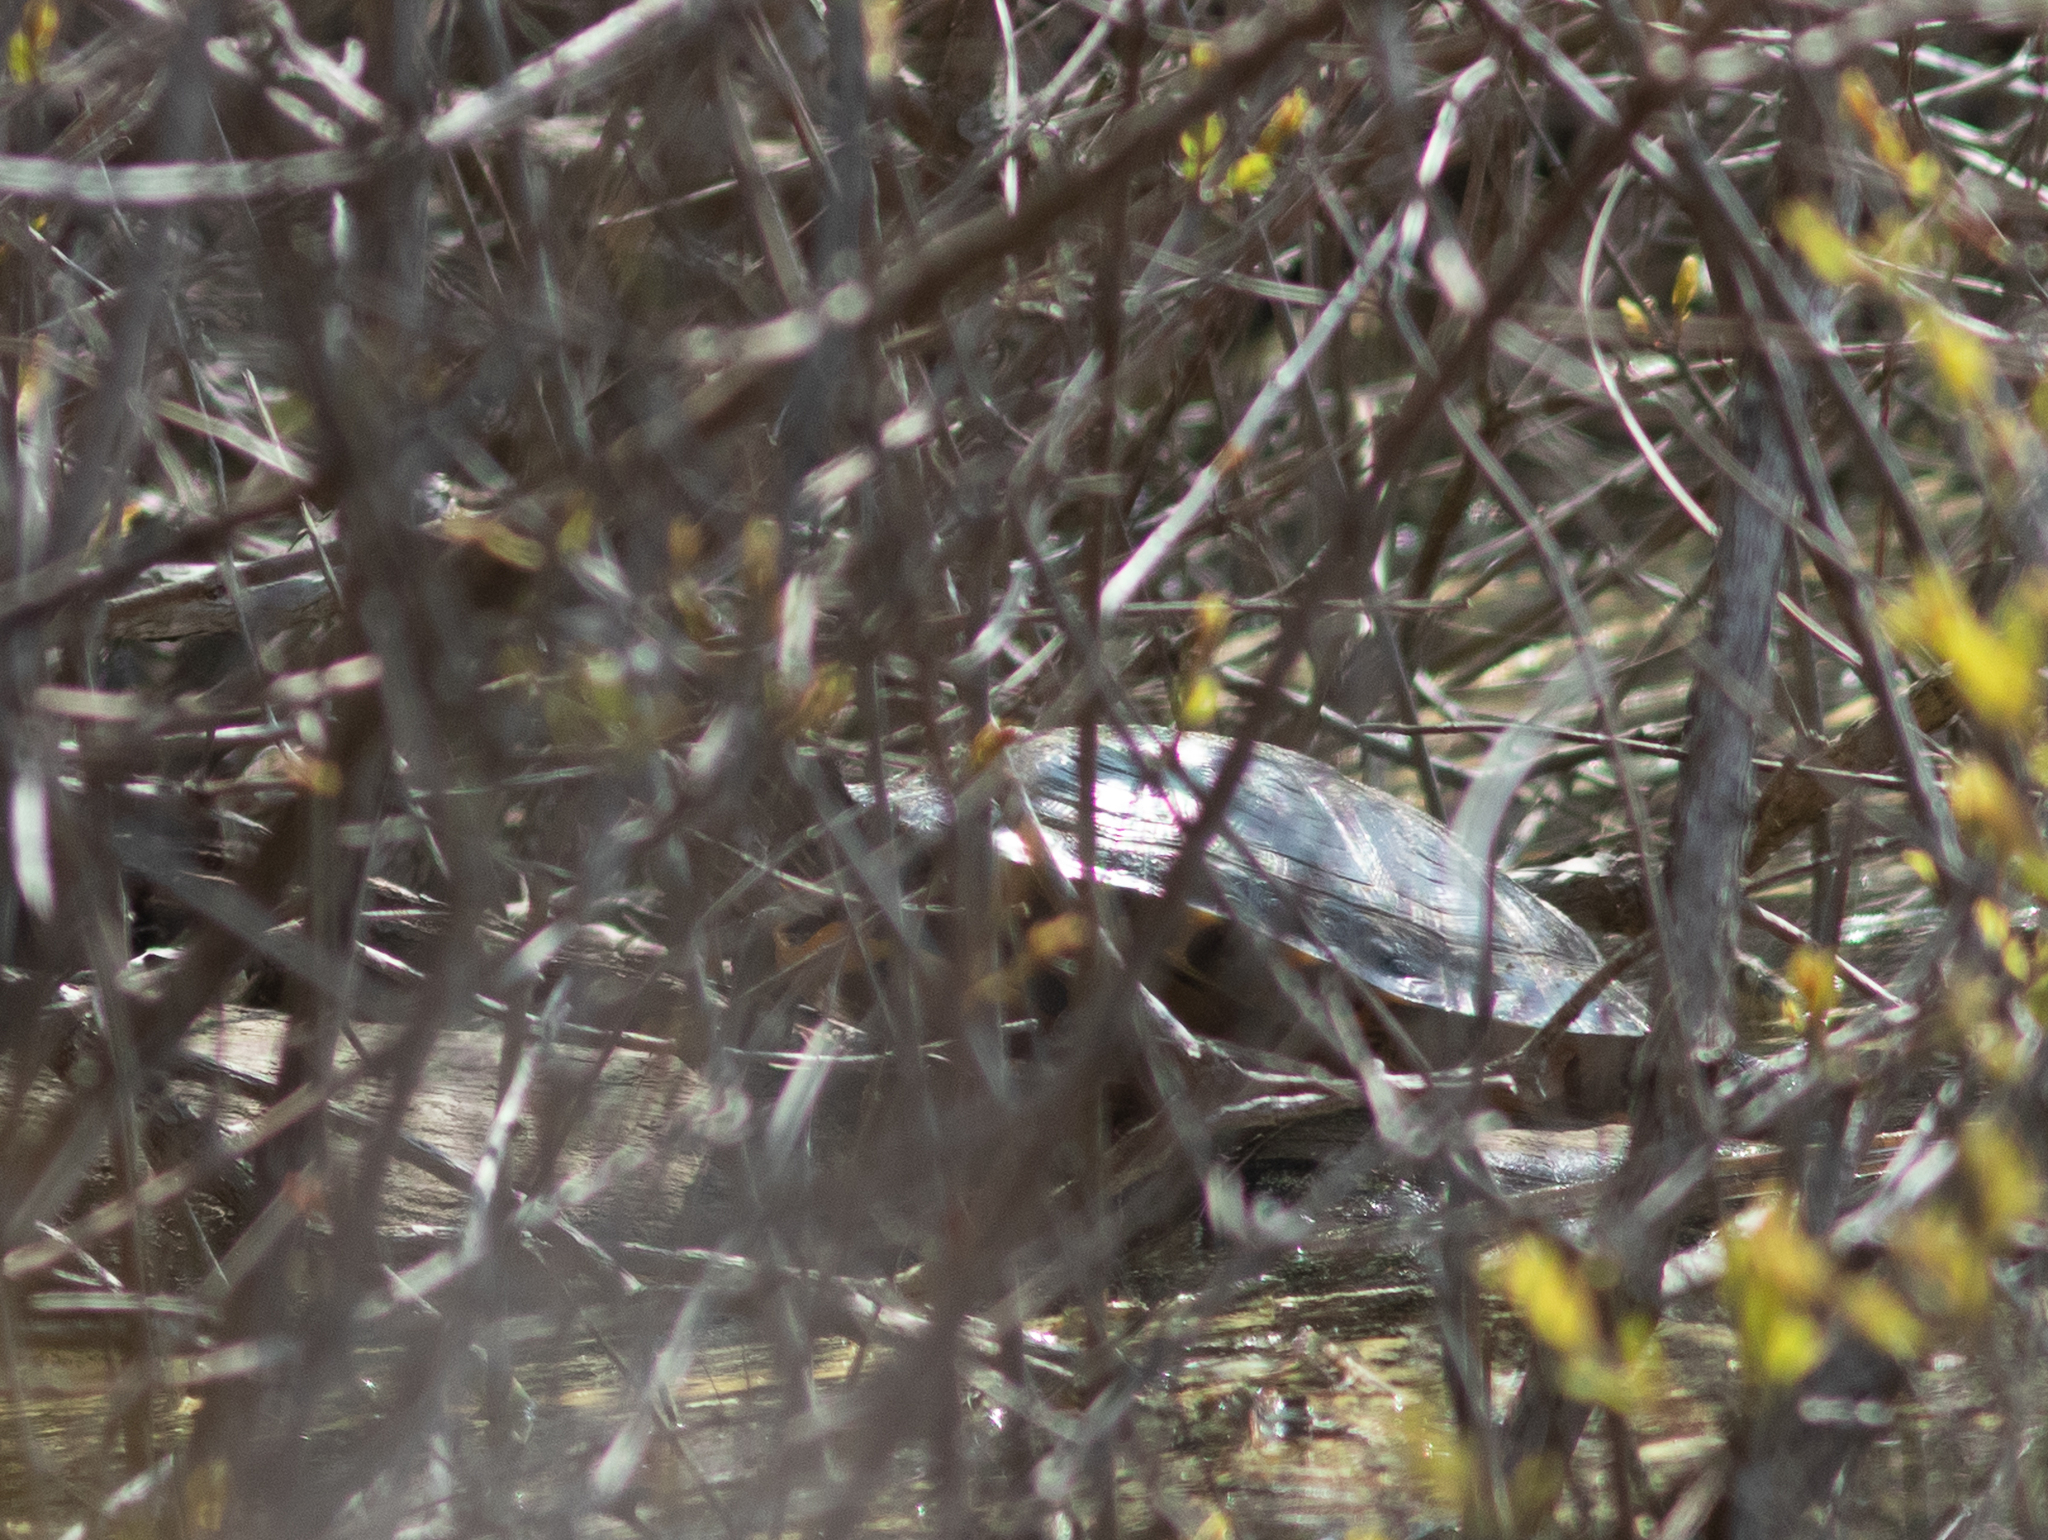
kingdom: Animalia
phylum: Chordata
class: Testudines
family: Emydidae
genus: Trachemys
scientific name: Trachemys scripta
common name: Slider
